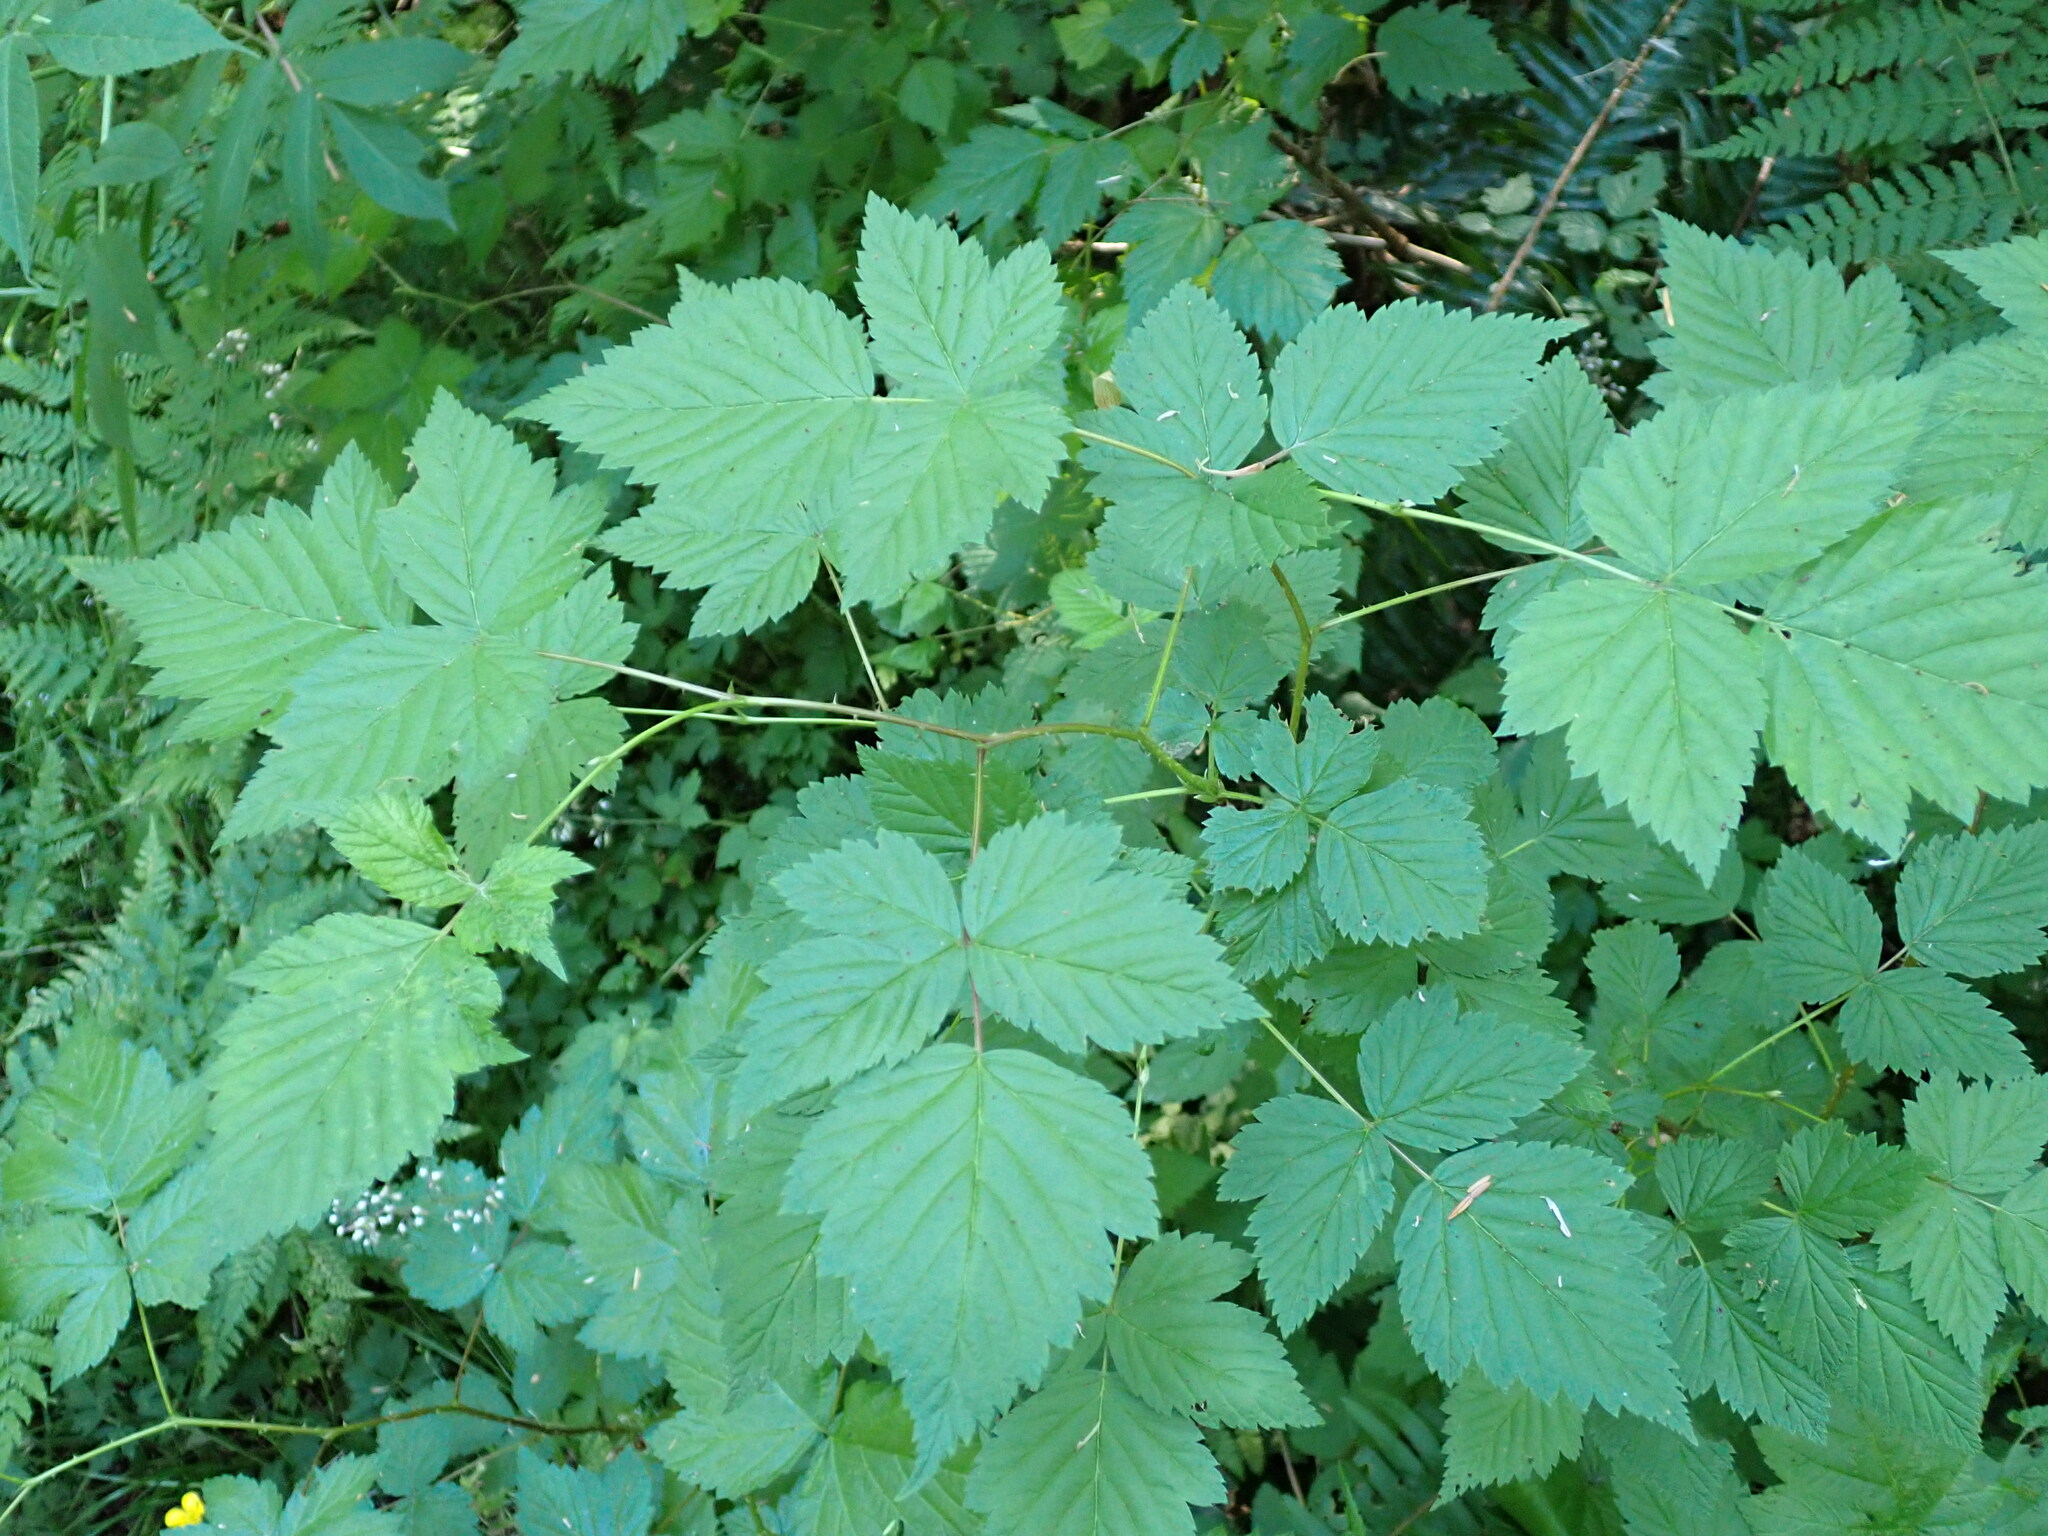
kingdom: Plantae
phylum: Tracheophyta
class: Magnoliopsida
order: Rosales
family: Rosaceae
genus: Rubus
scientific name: Rubus spectabilis
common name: Salmonberry
